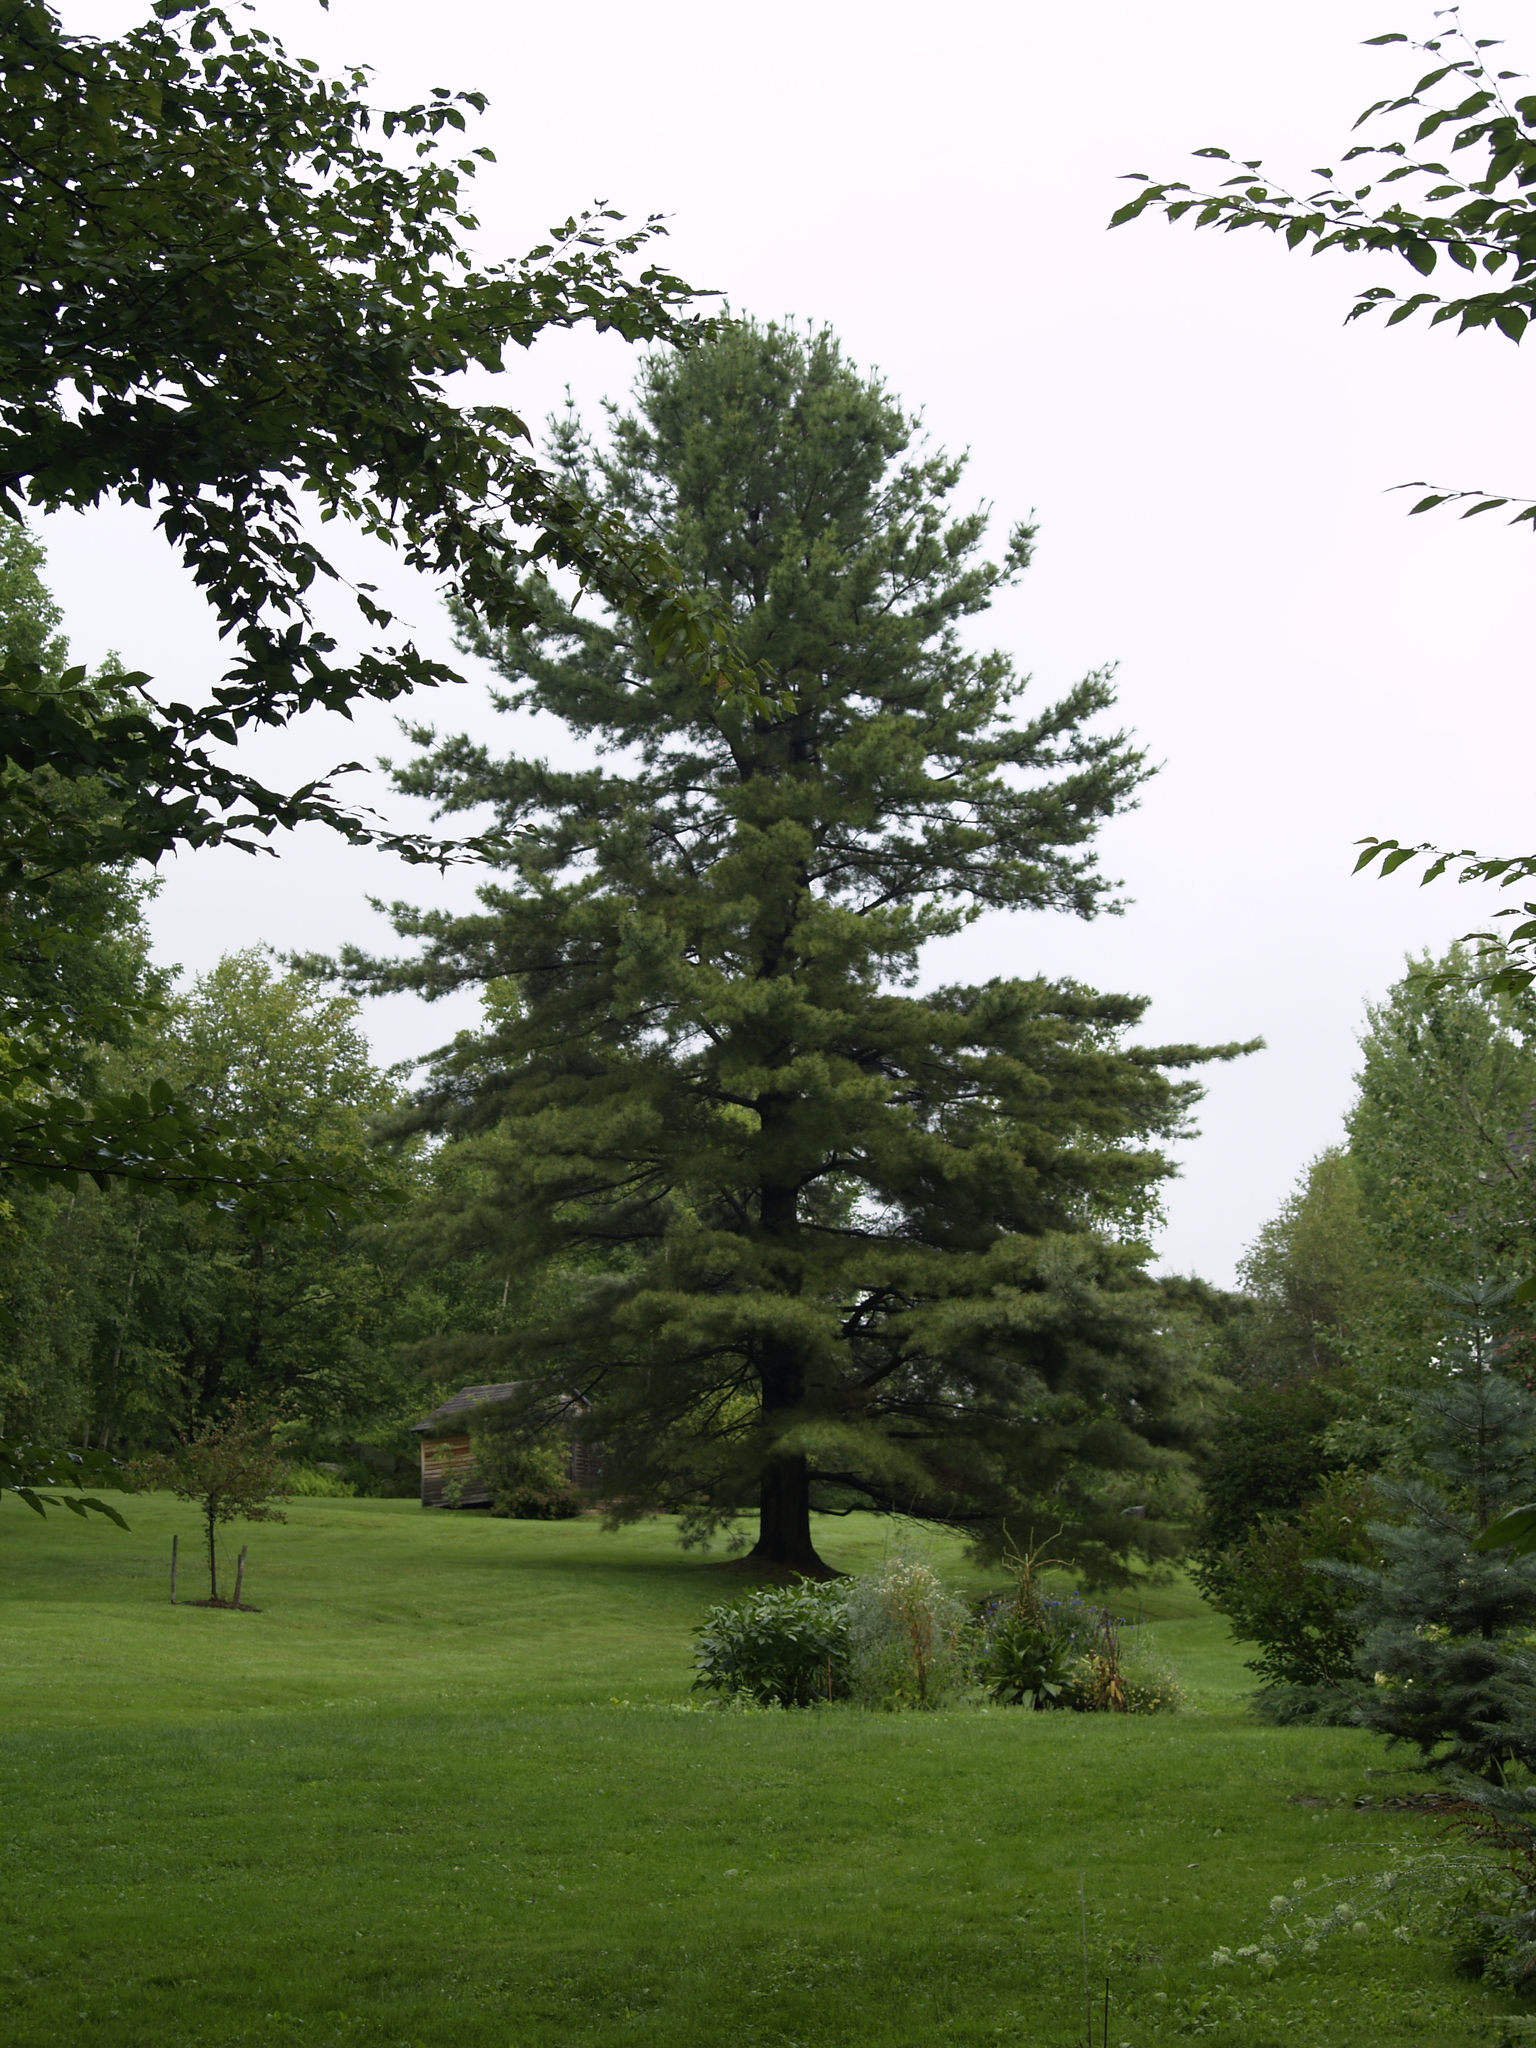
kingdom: Plantae
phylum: Tracheophyta
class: Pinopsida
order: Pinales
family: Pinaceae
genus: Pinus
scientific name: Pinus strobus
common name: Weymouth pine
